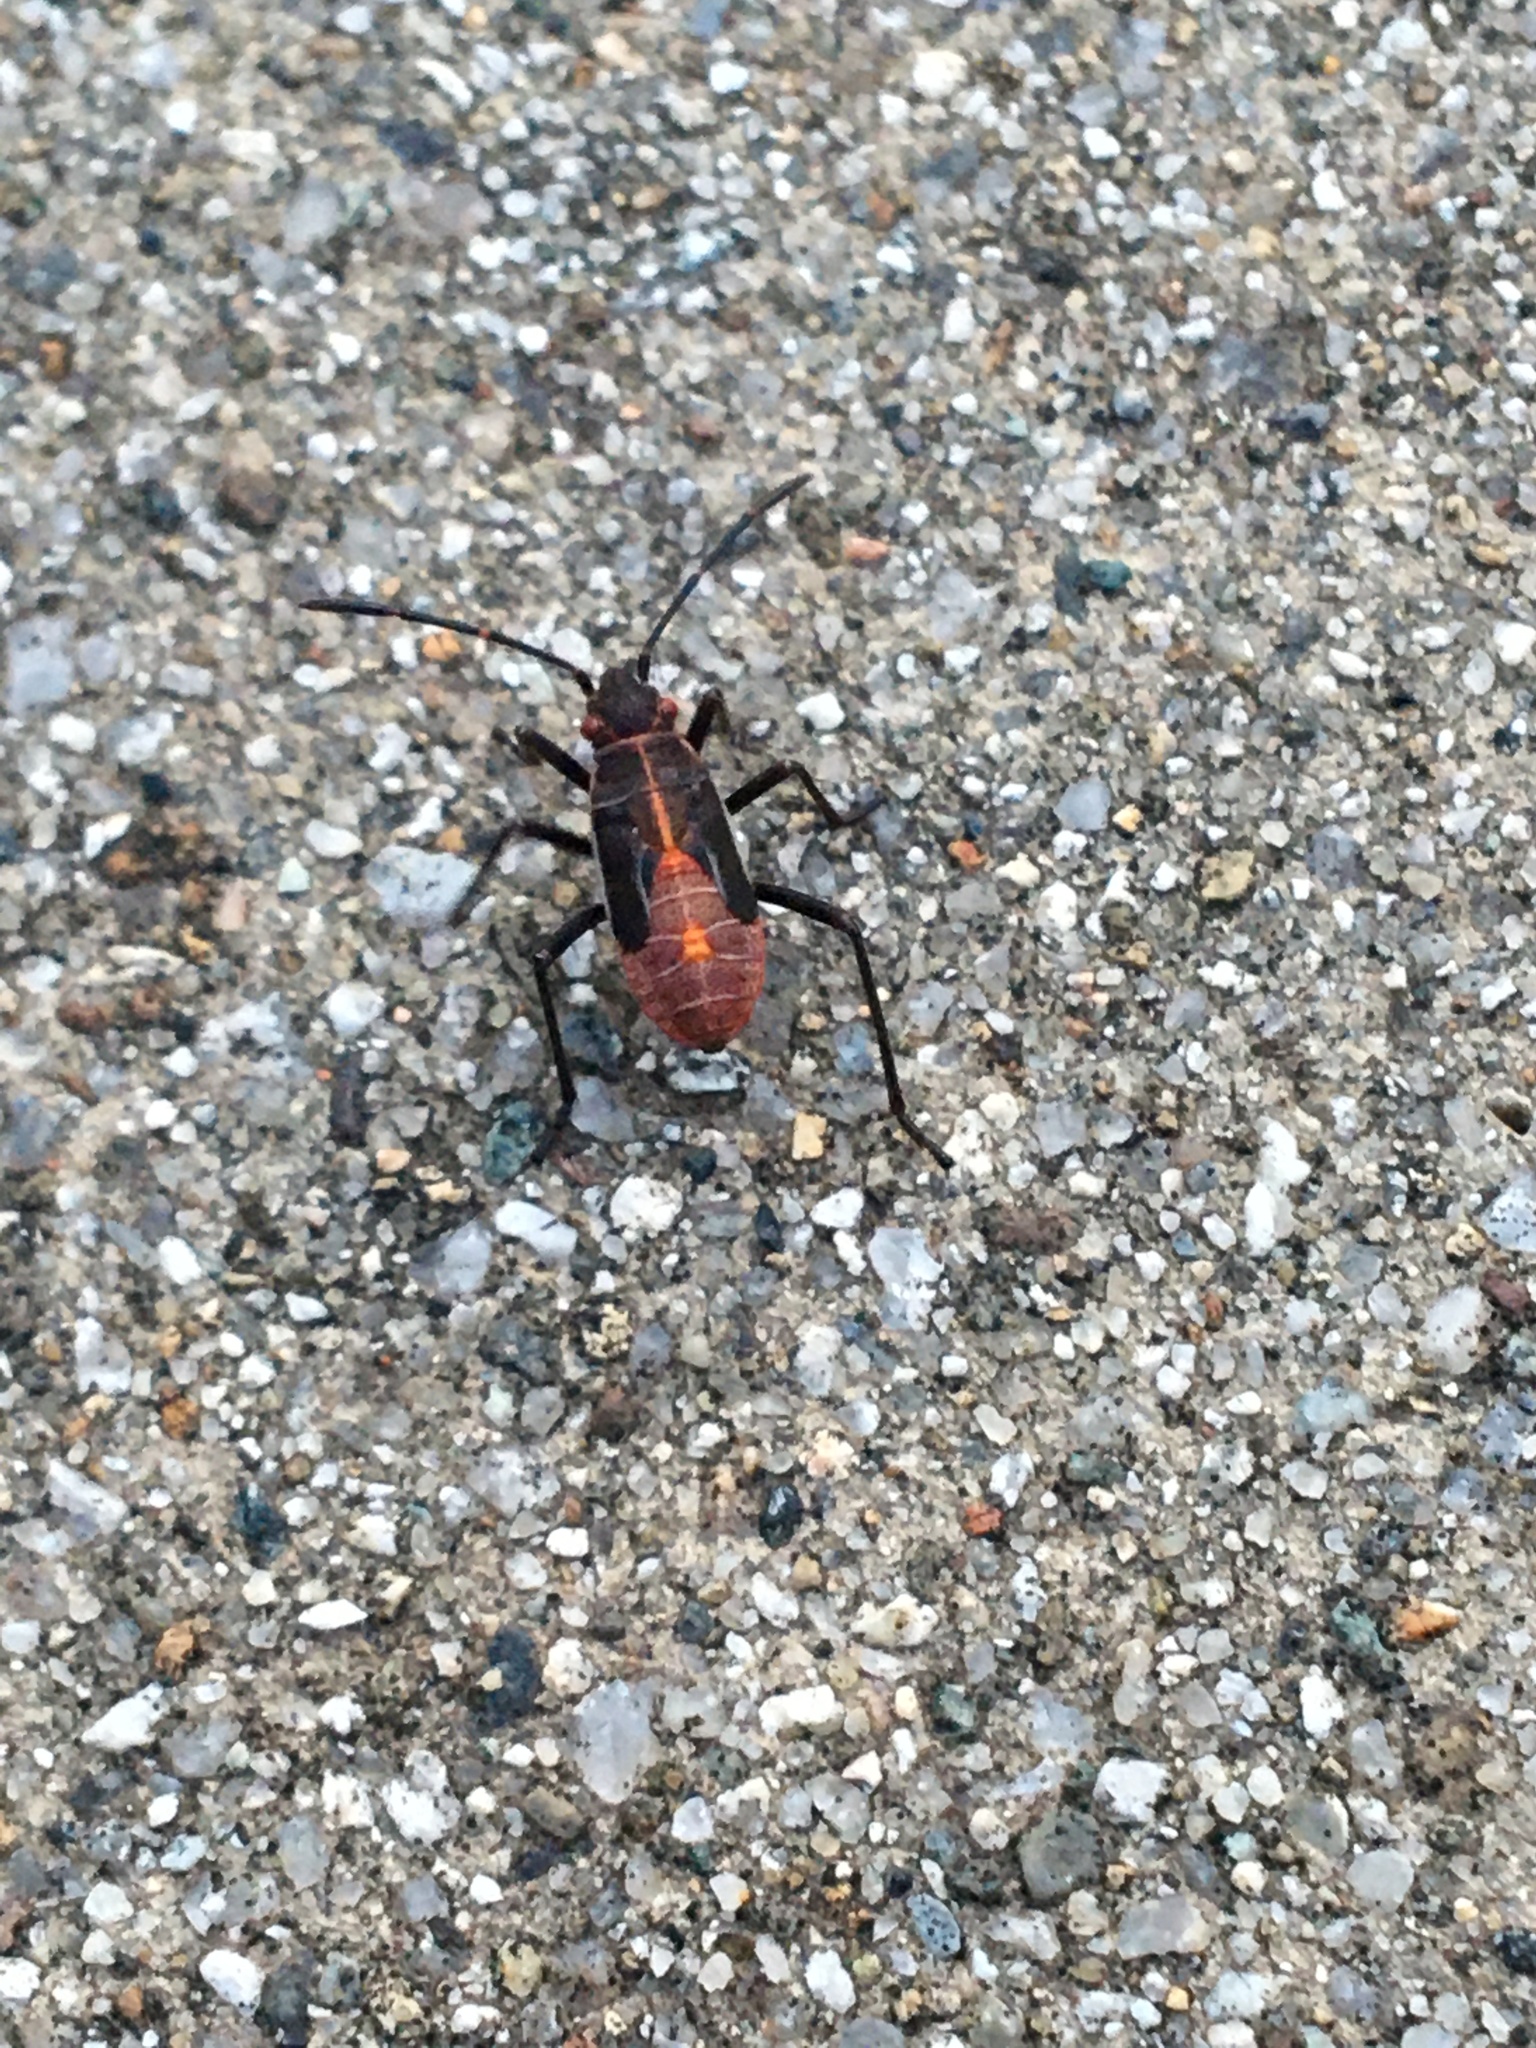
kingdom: Animalia
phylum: Arthropoda
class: Insecta
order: Hemiptera
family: Rhopalidae
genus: Boisea
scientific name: Boisea rubrolineata
